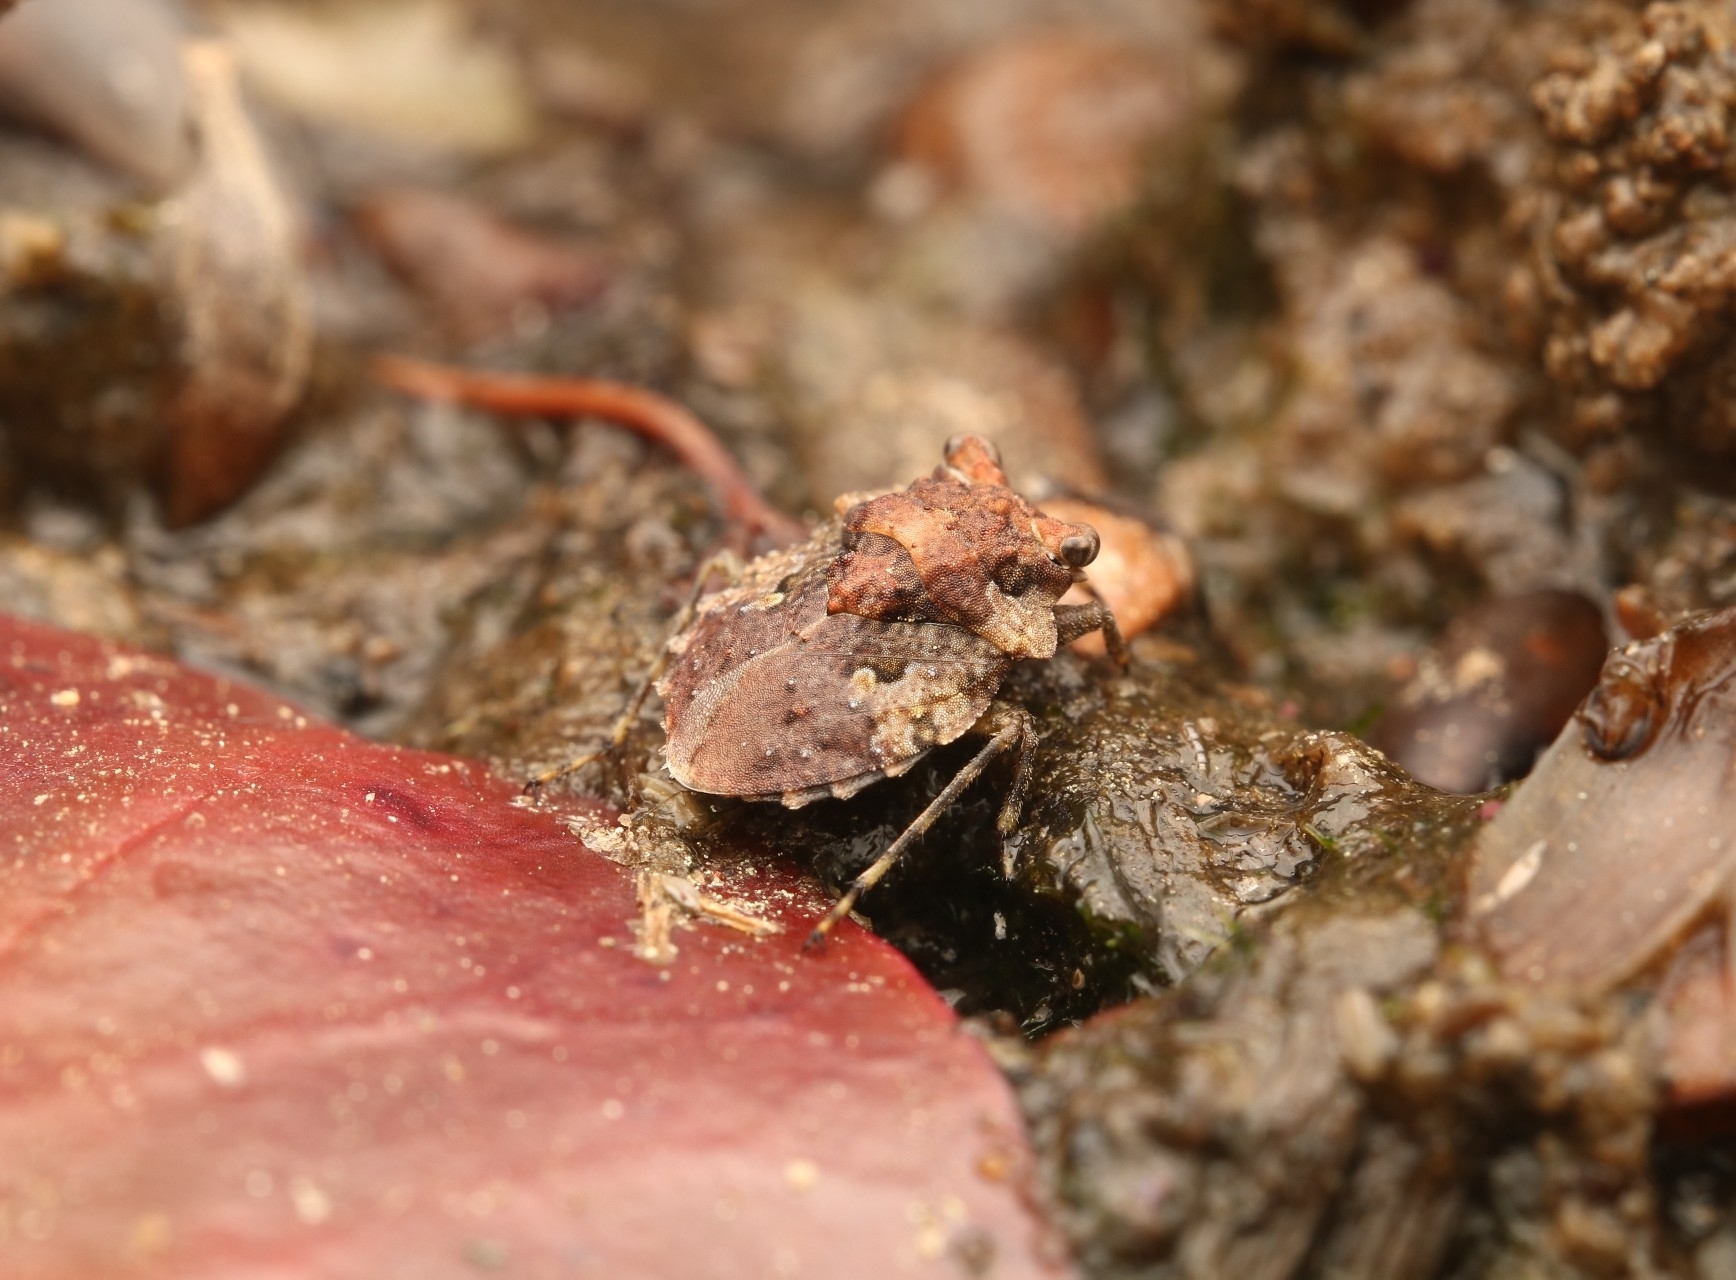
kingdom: Animalia
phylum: Arthropoda
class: Insecta
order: Hemiptera
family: Gelastocoridae
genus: Gelastocoris
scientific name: Gelastocoris oculatus
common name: Toad bug
